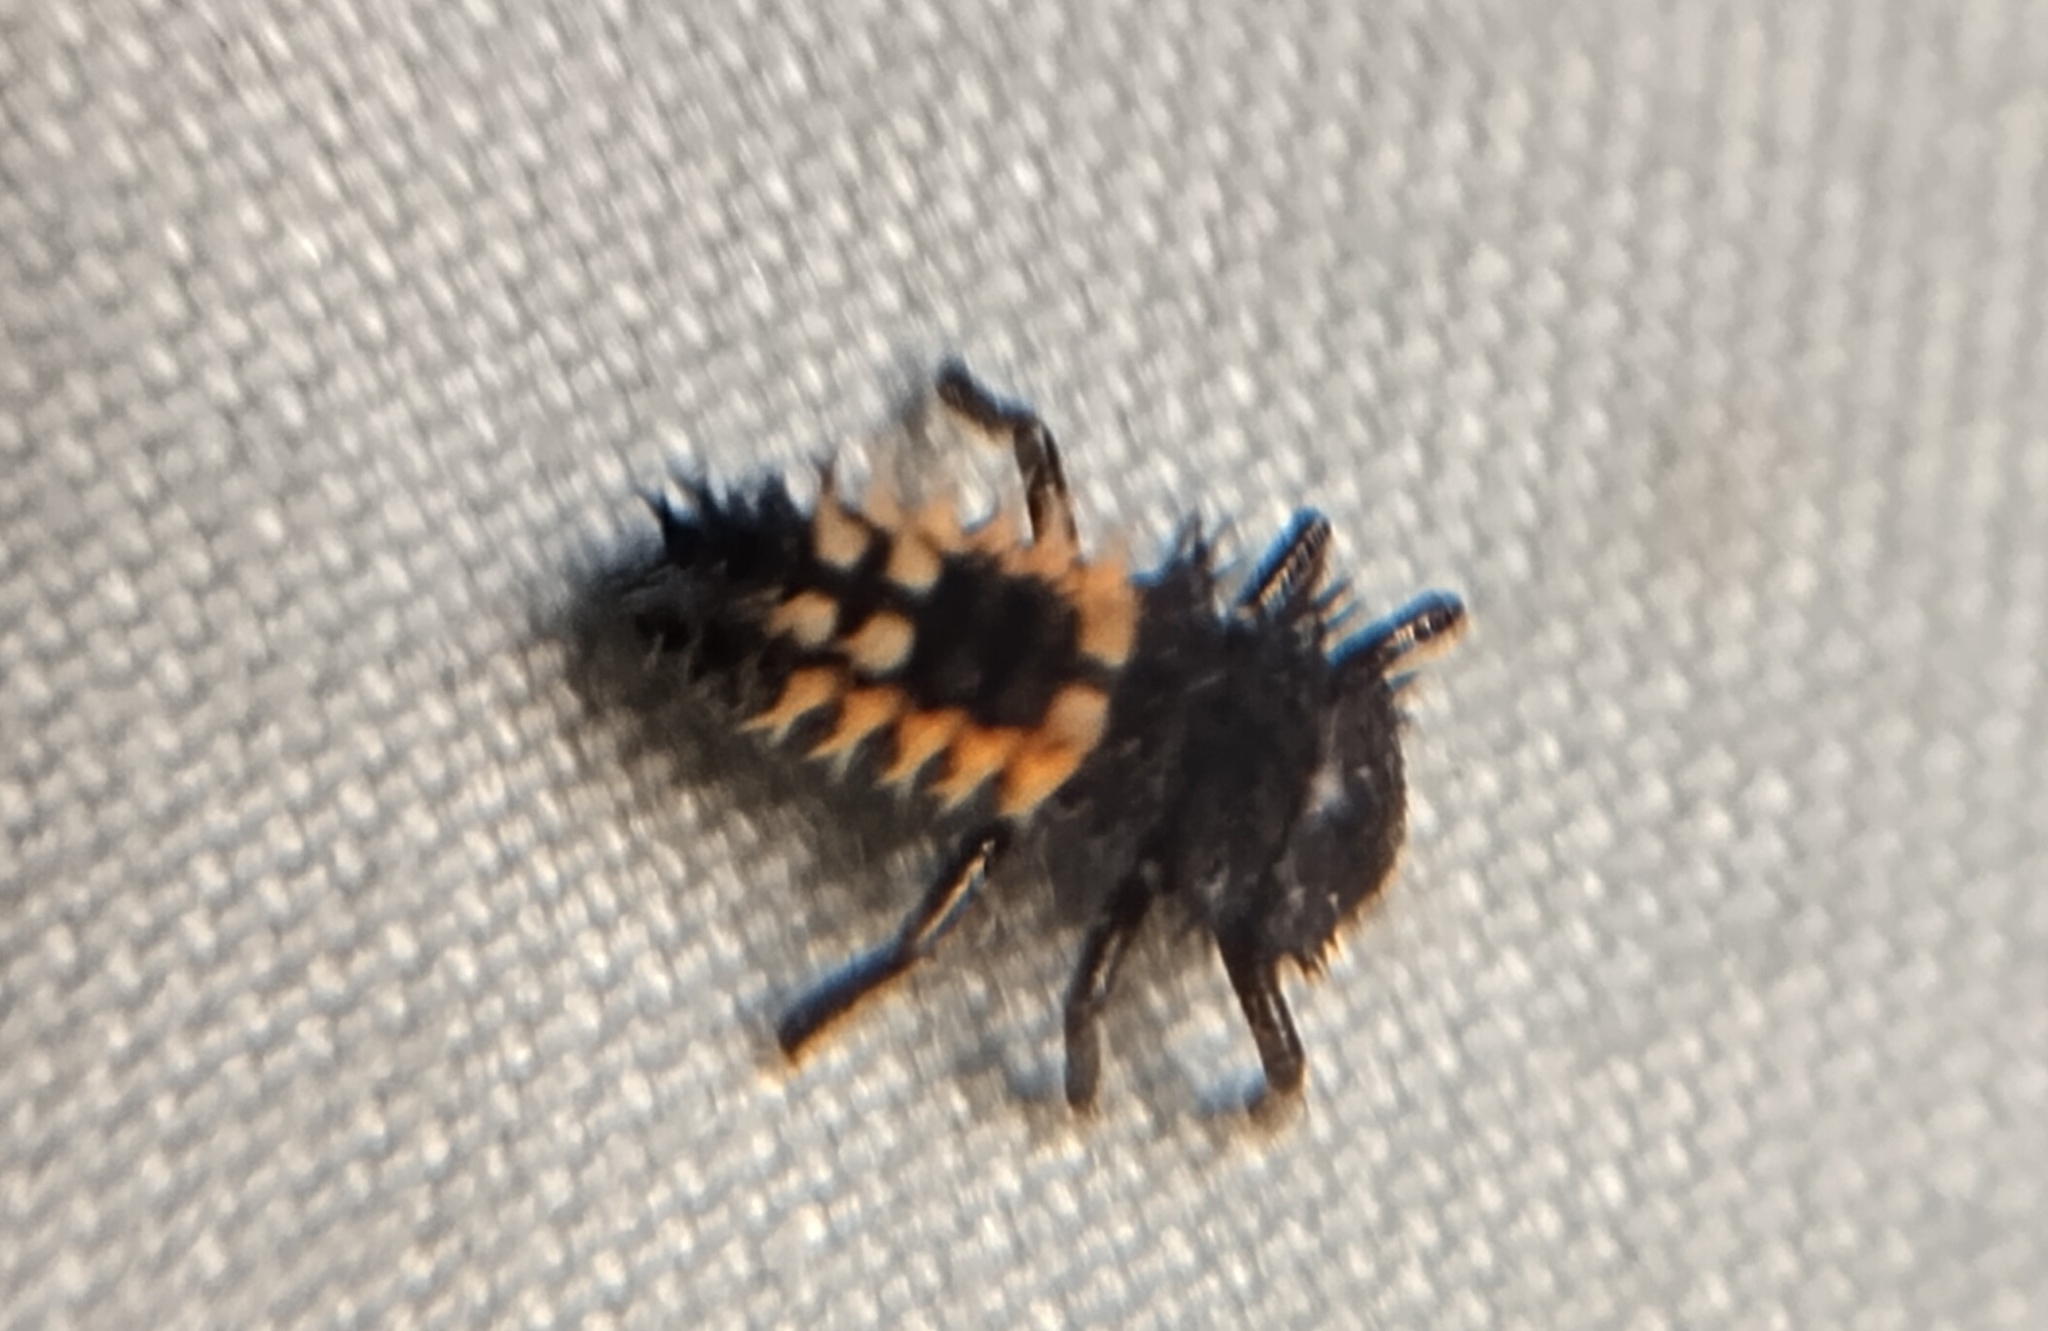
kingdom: Animalia
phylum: Arthropoda
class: Insecta
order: Coleoptera
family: Coccinellidae
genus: Harmonia
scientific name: Harmonia axyridis
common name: Harlequin ladybird
